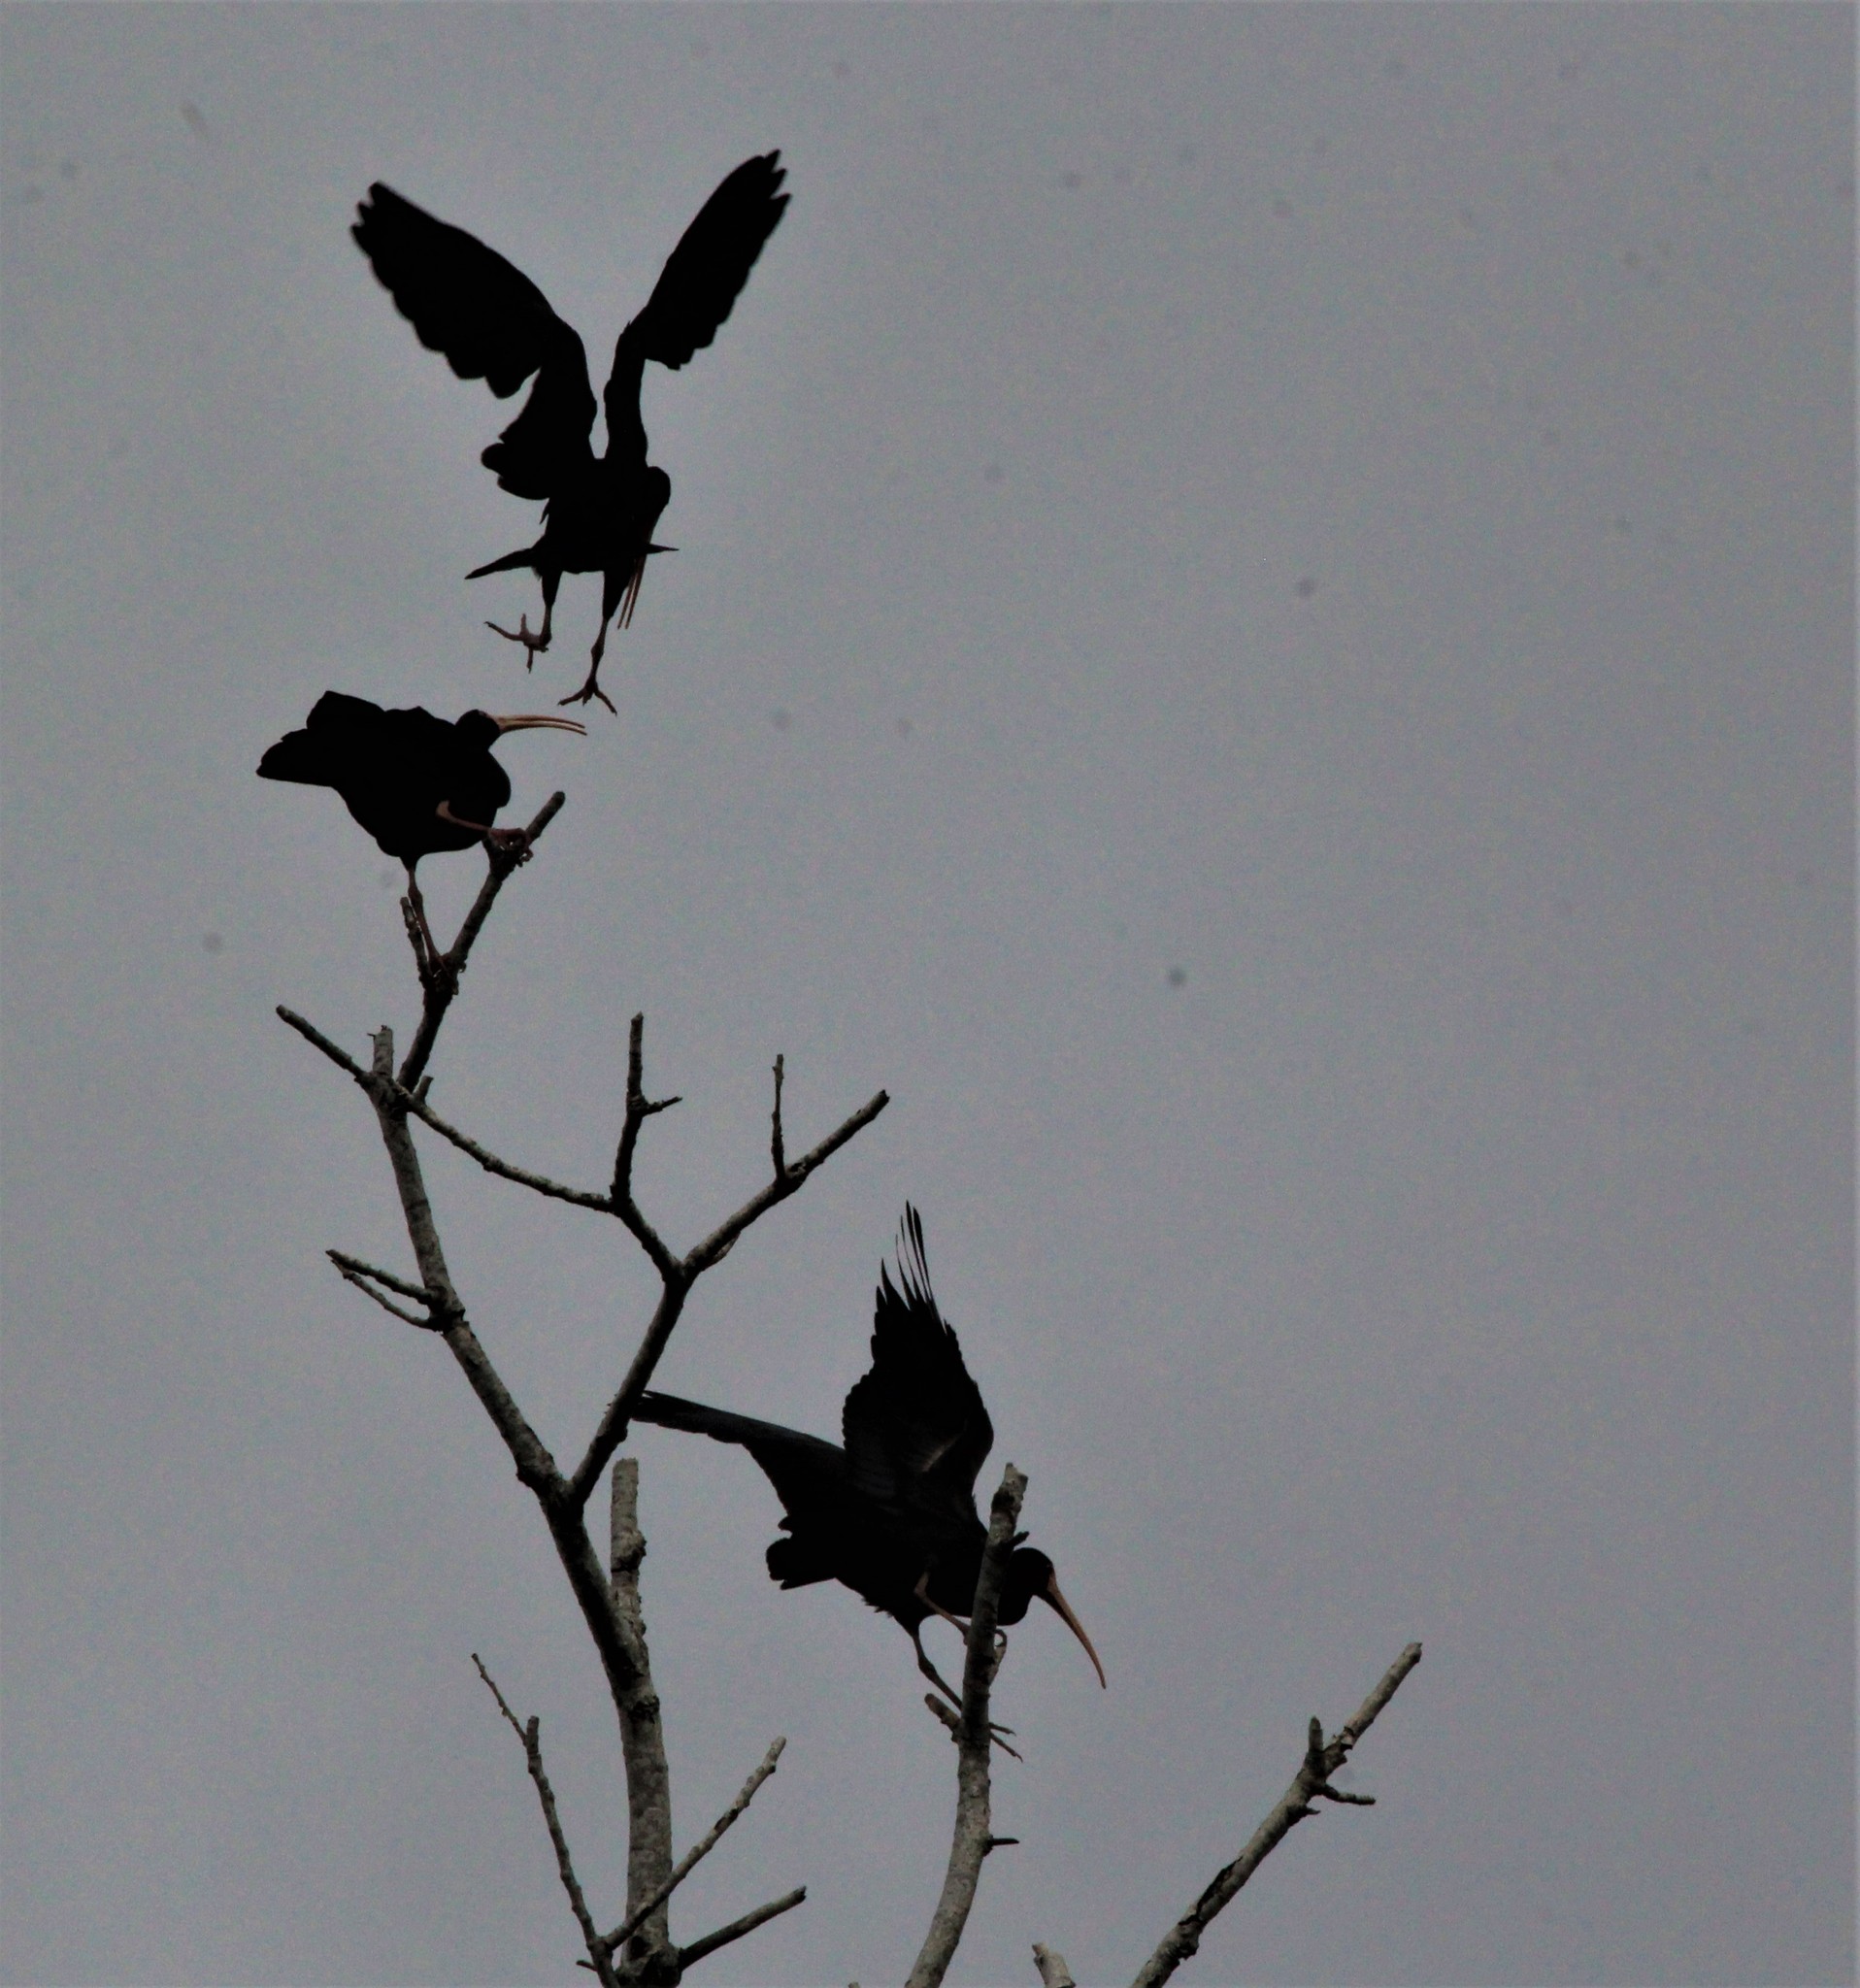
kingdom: Animalia
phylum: Chordata
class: Aves
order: Pelecaniformes
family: Threskiornithidae
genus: Phimosus
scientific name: Phimosus infuscatus
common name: Bare-faced ibis
